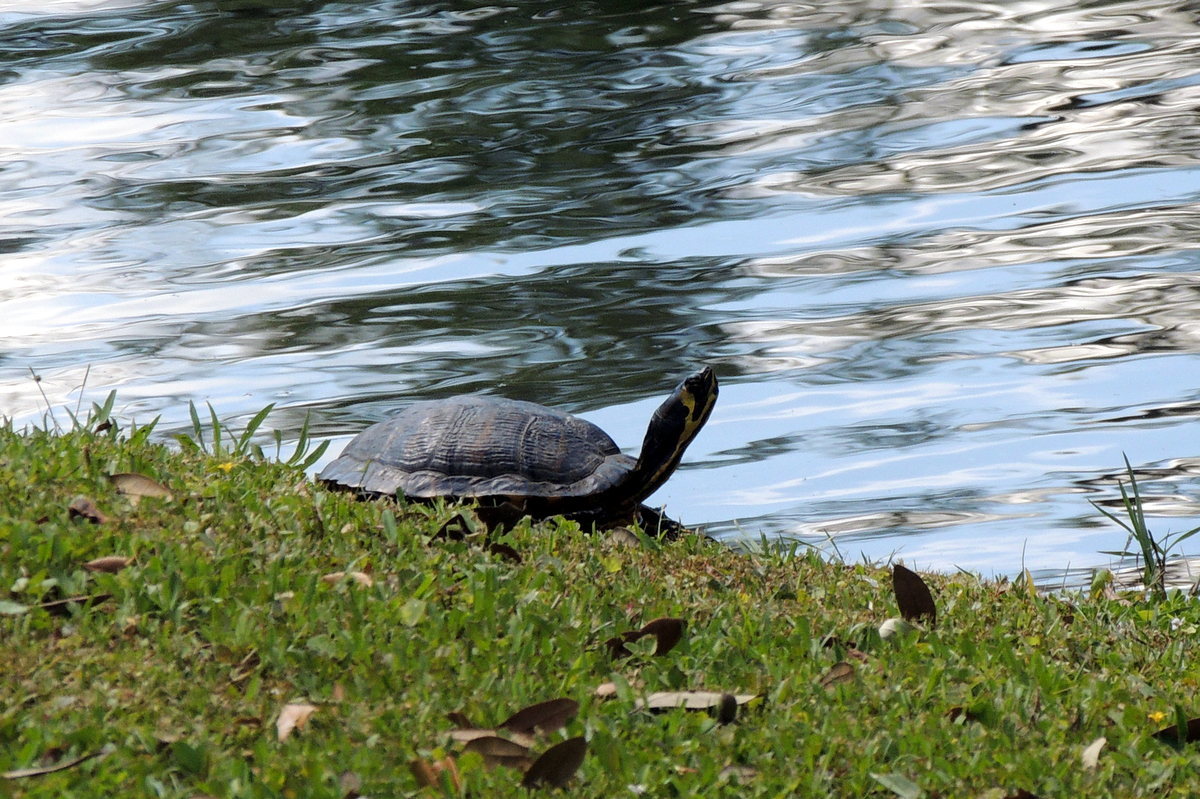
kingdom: Animalia
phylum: Chordata
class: Testudines
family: Emydidae
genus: Trachemys
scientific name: Trachemys scripta
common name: Slider
